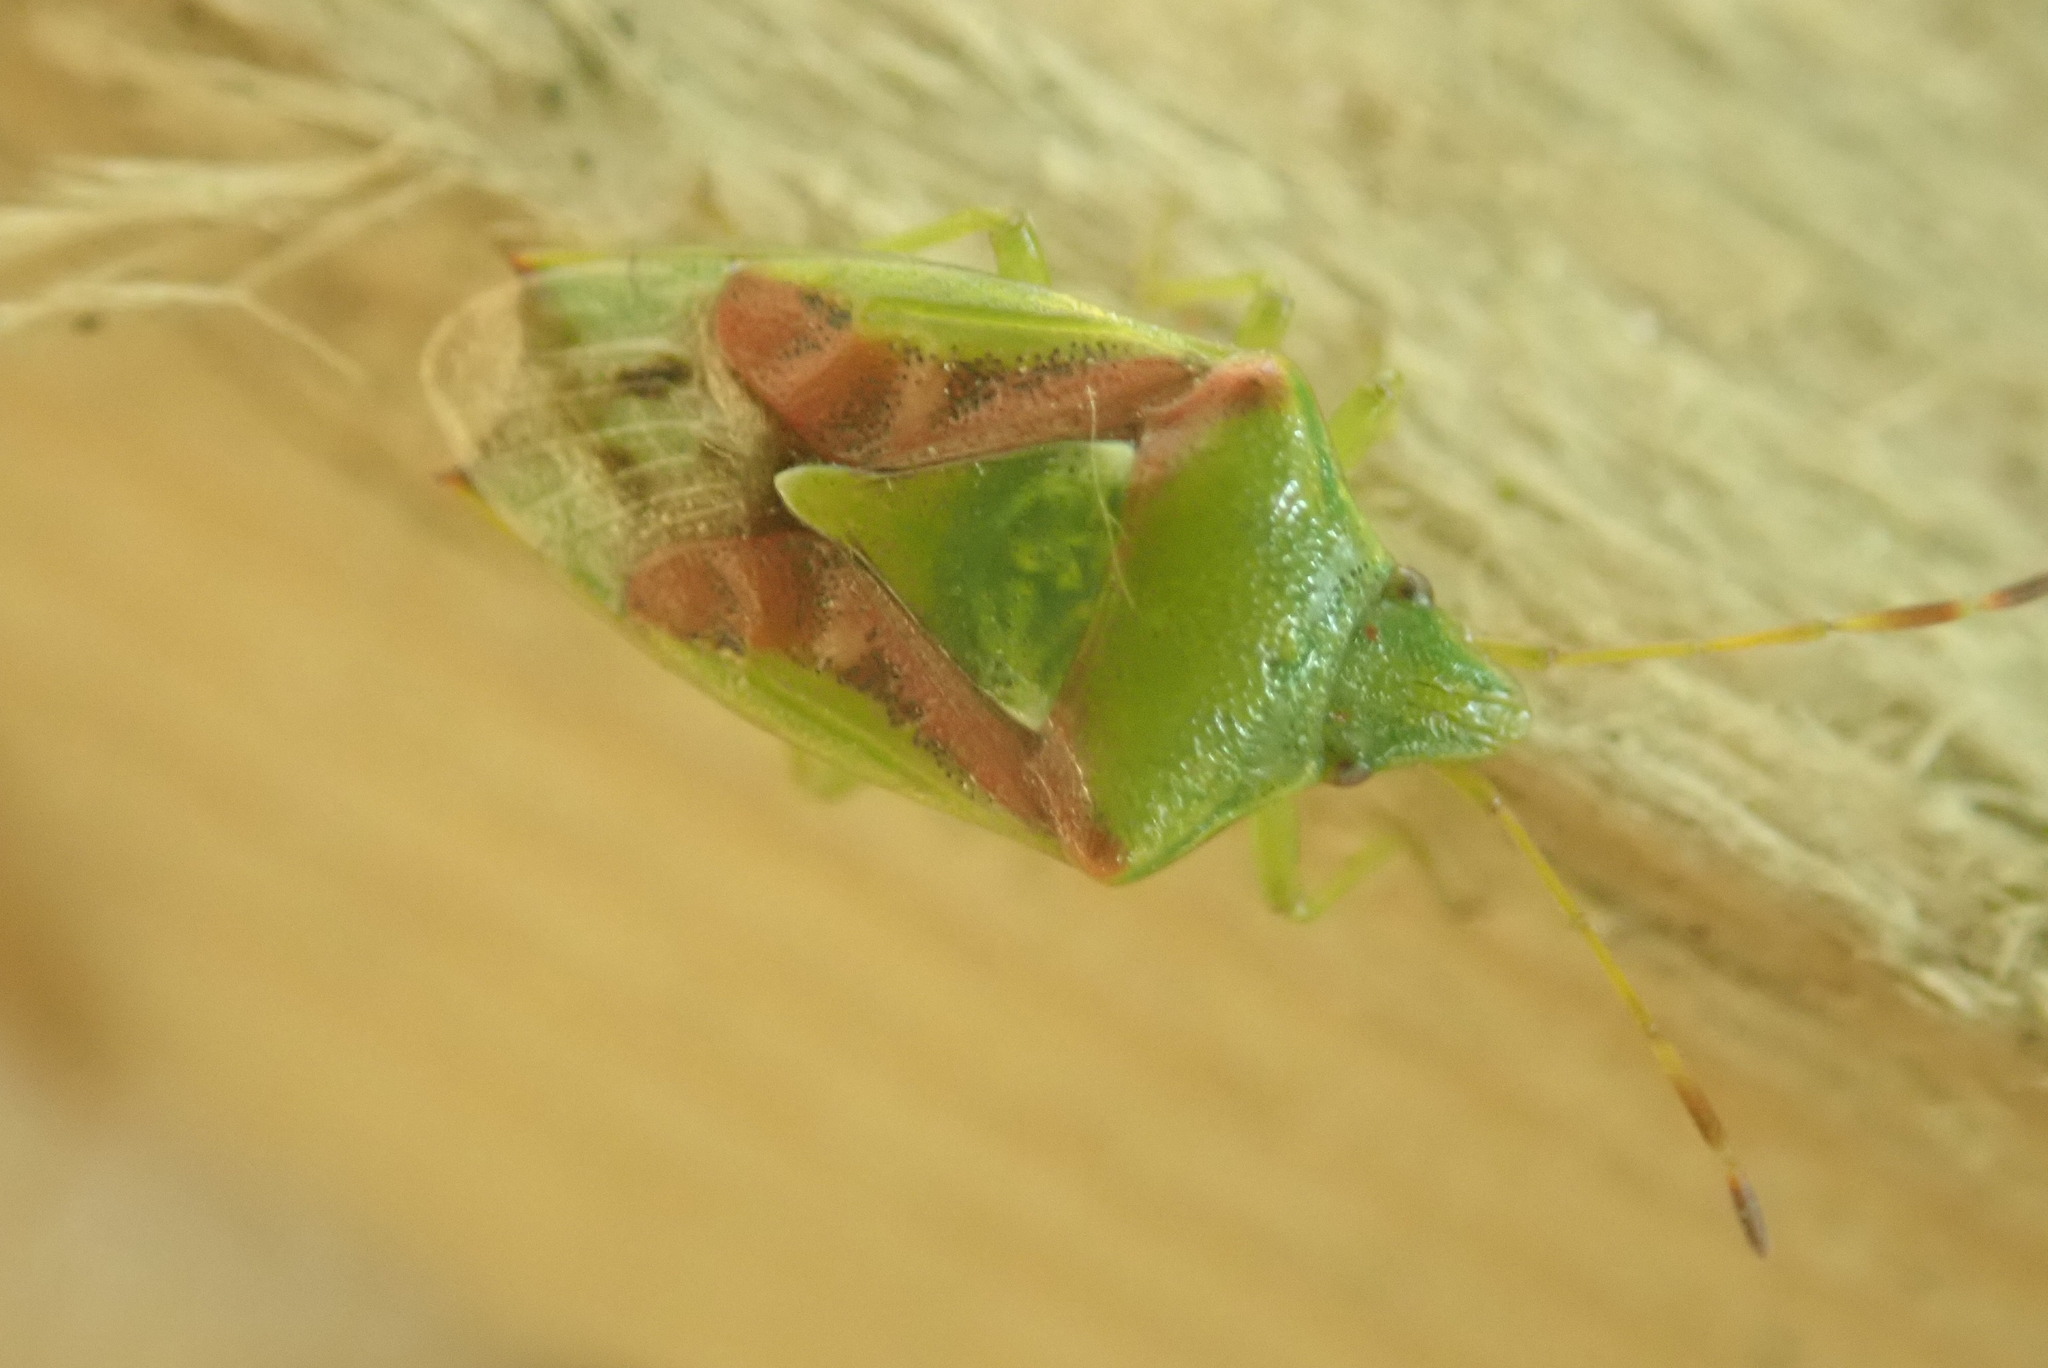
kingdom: Animalia
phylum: Arthropoda
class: Insecta
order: Hemiptera
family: Acanthosomatidae
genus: Cyphostethus
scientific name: Cyphostethus tristriatus
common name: Juniper shieldbug
